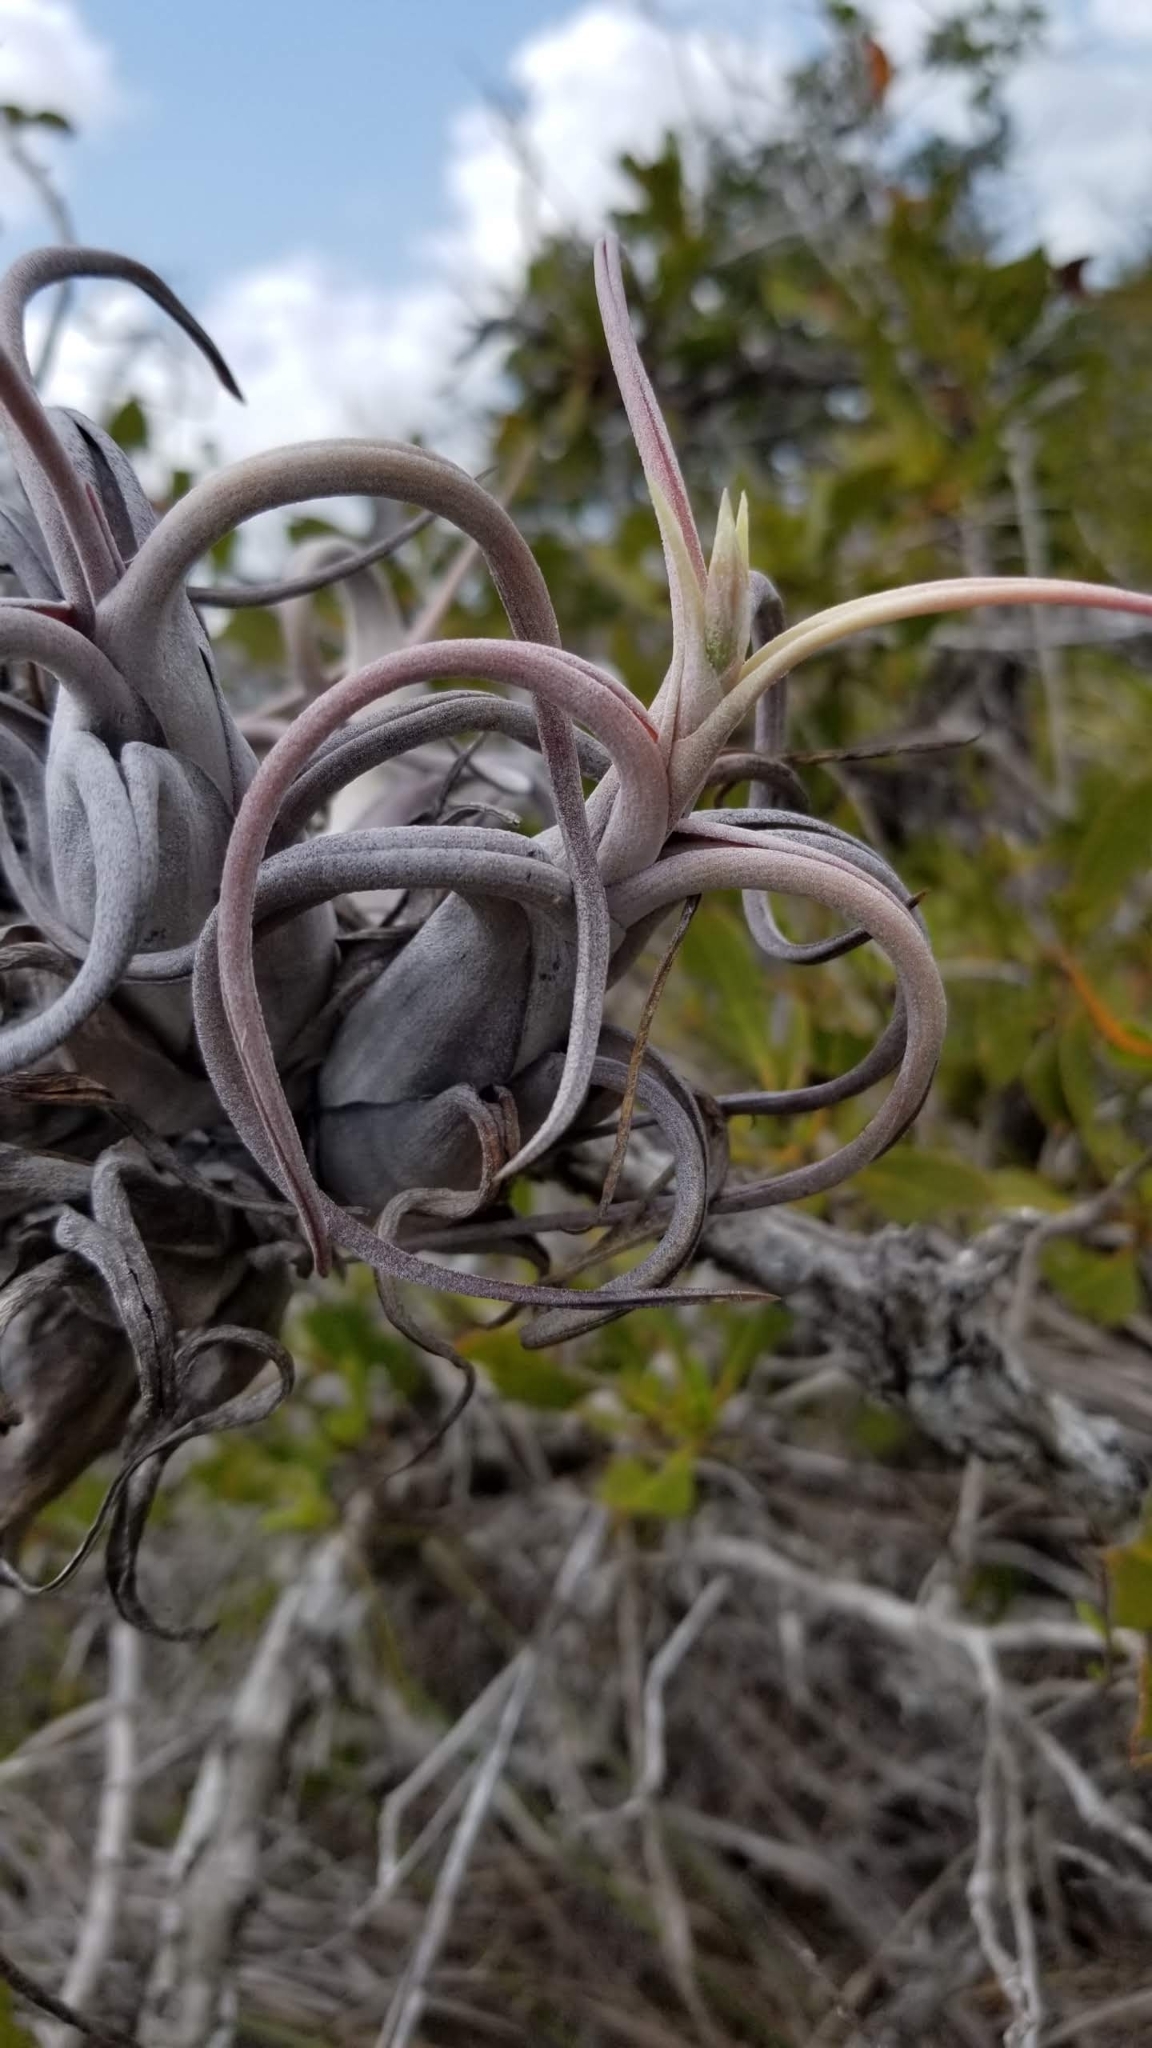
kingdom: Plantae
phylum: Tracheophyta
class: Liliopsida
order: Poales
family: Bromeliaceae
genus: Tillandsia
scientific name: Tillandsia paucifolia
